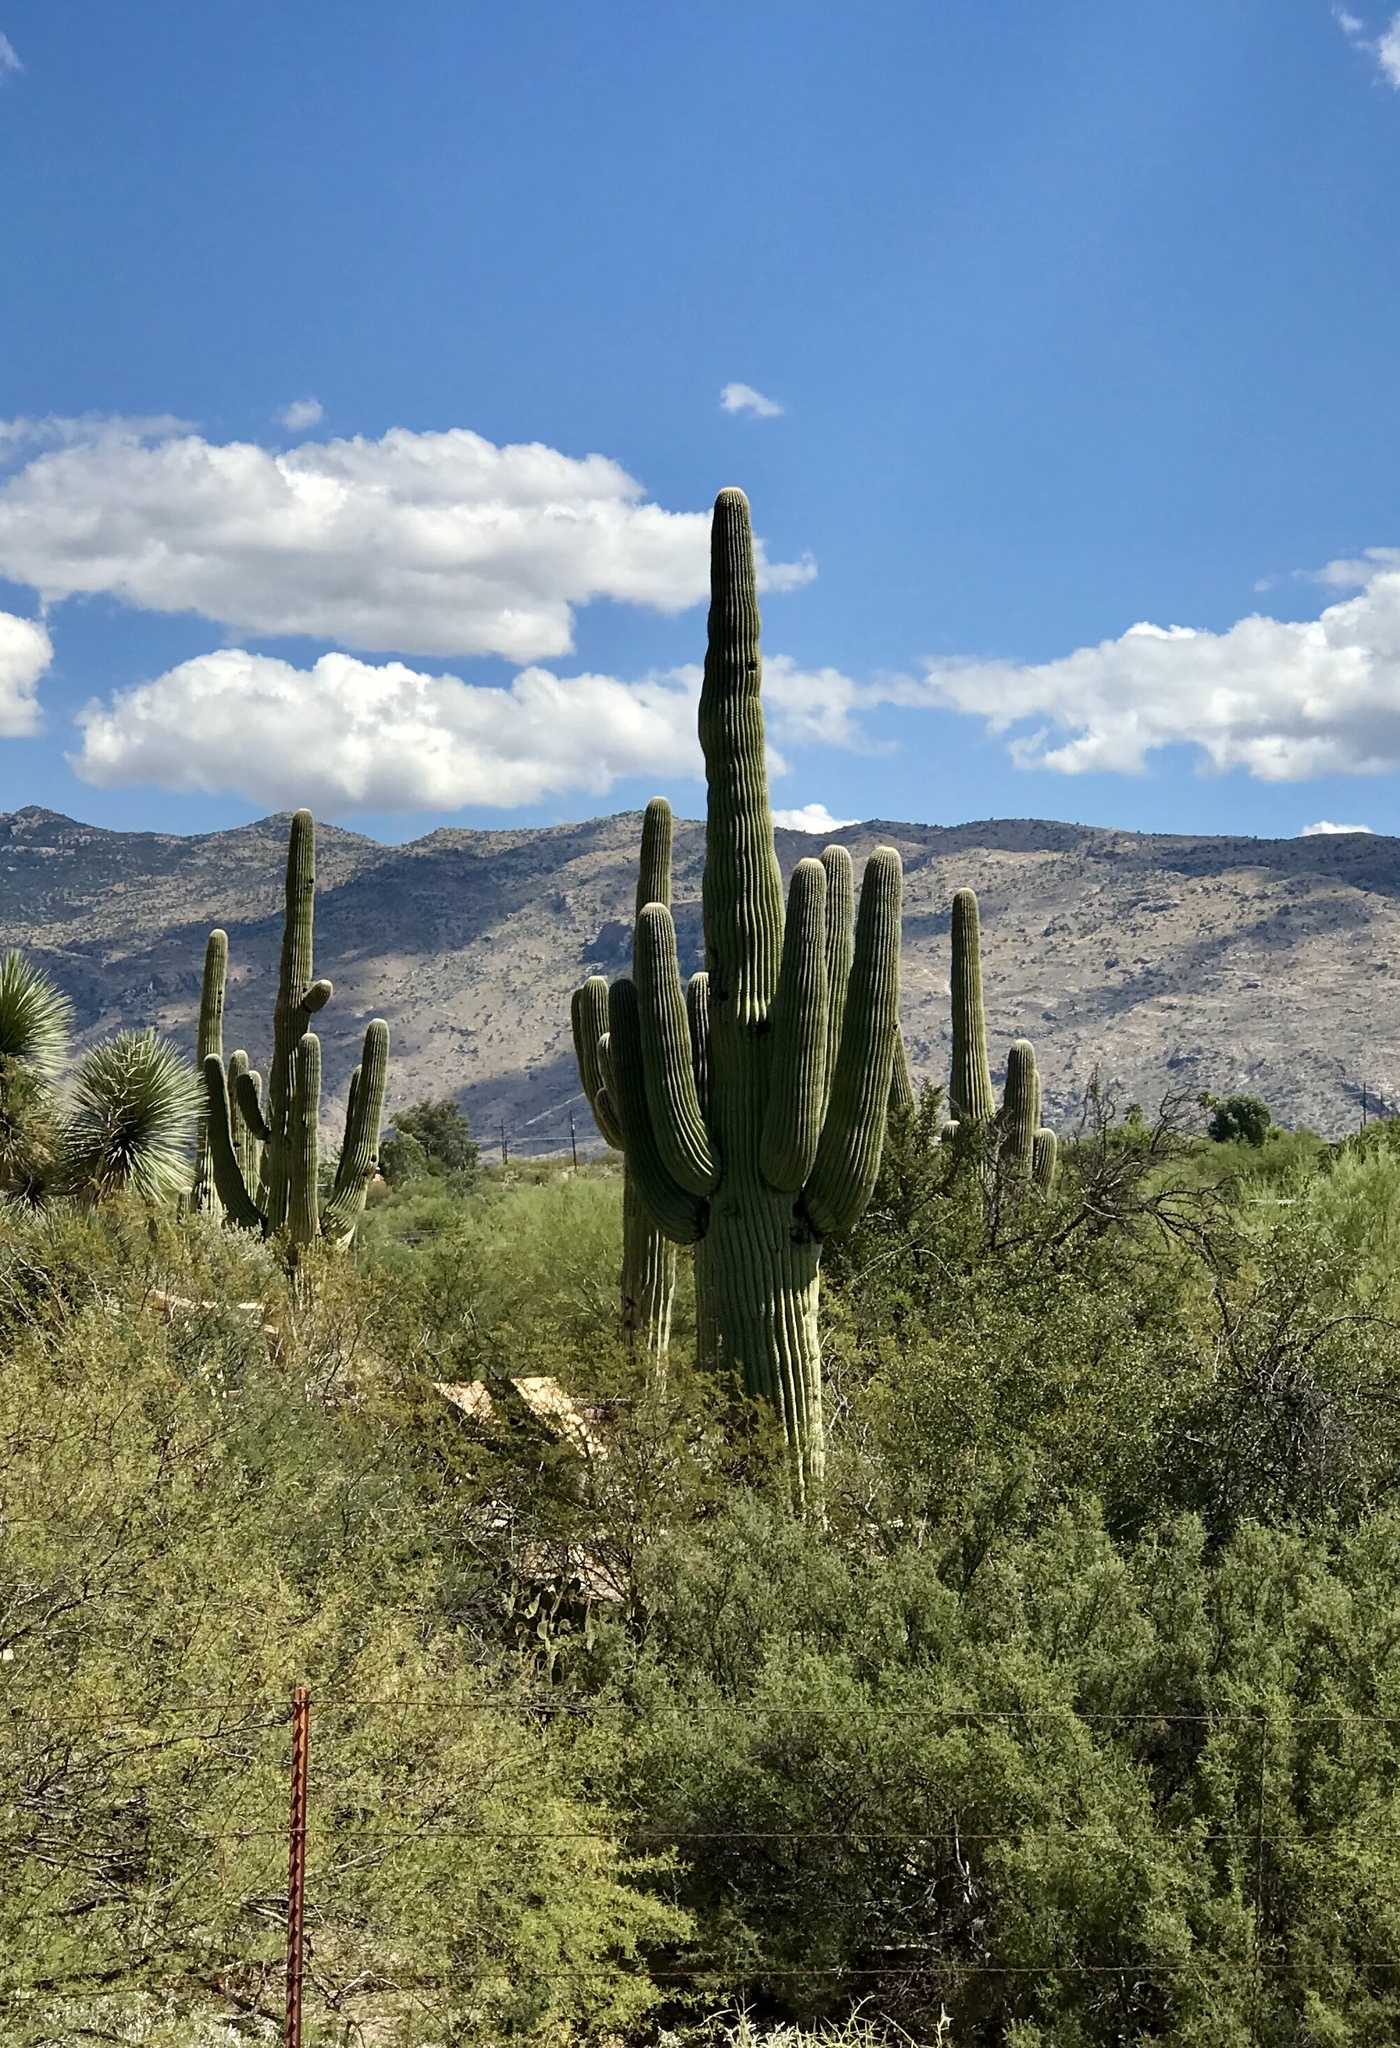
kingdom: Plantae
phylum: Tracheophyta
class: Magnoliopsida
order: Caryophyllales
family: Cactaceae
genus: Carnegiea
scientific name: Carnegiea gigantea
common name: Saguaro
